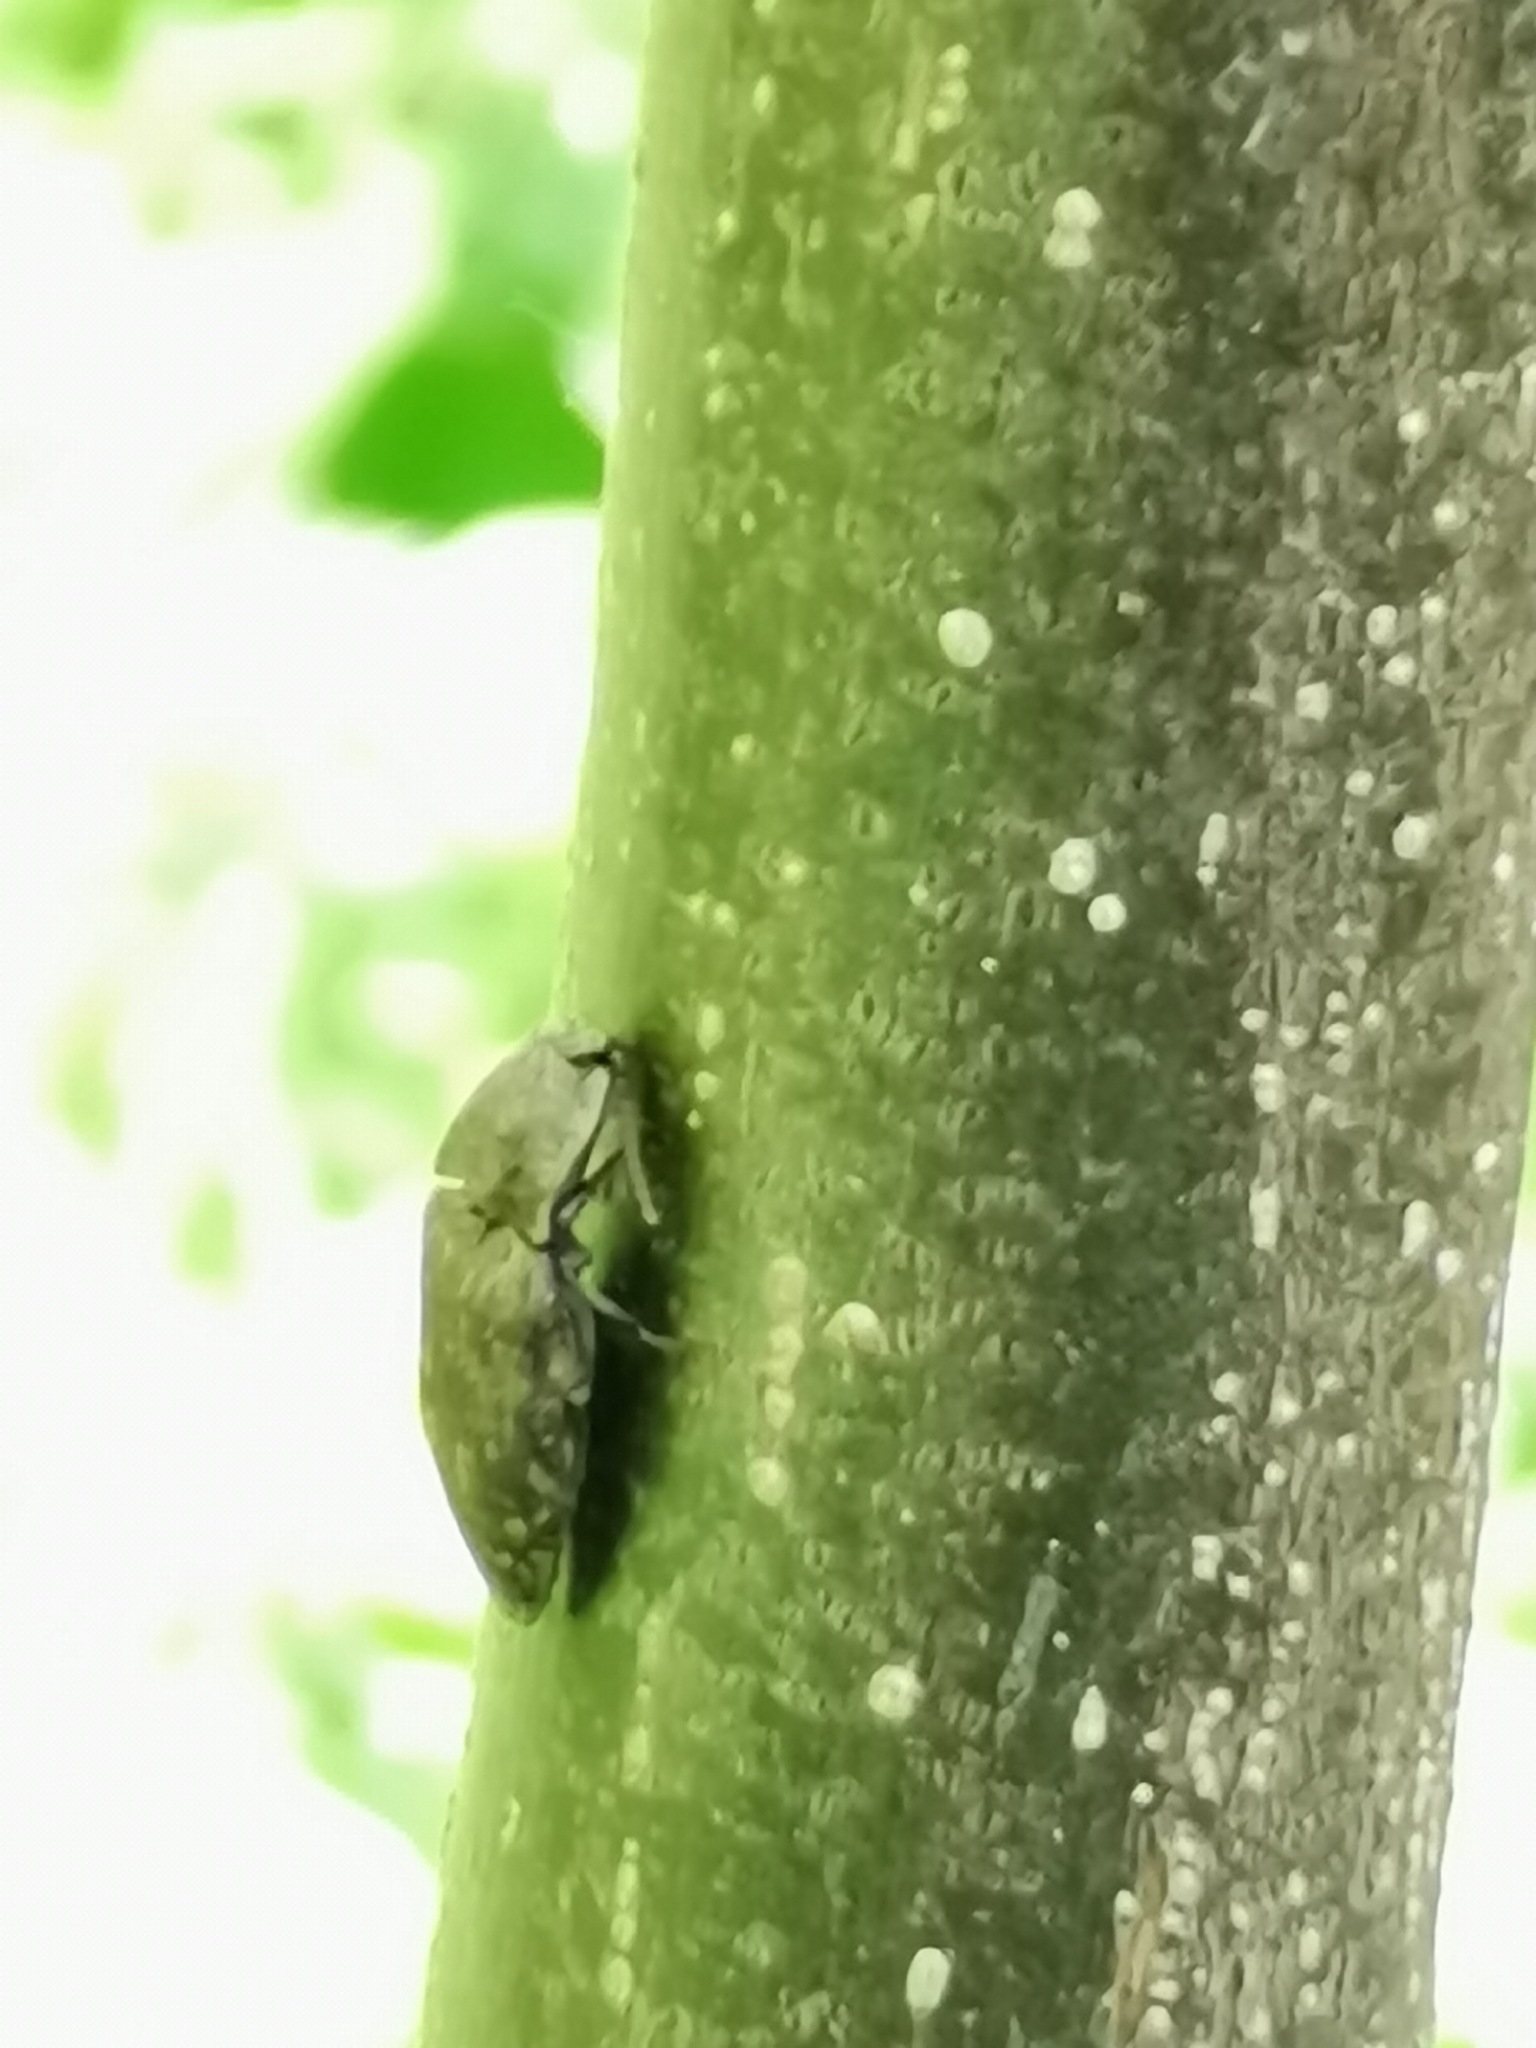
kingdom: Animalia
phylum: Arthropoda
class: Insecta
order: Coleoptera
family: Elateridae
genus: Agrypnus
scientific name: Agrypnus murinus
